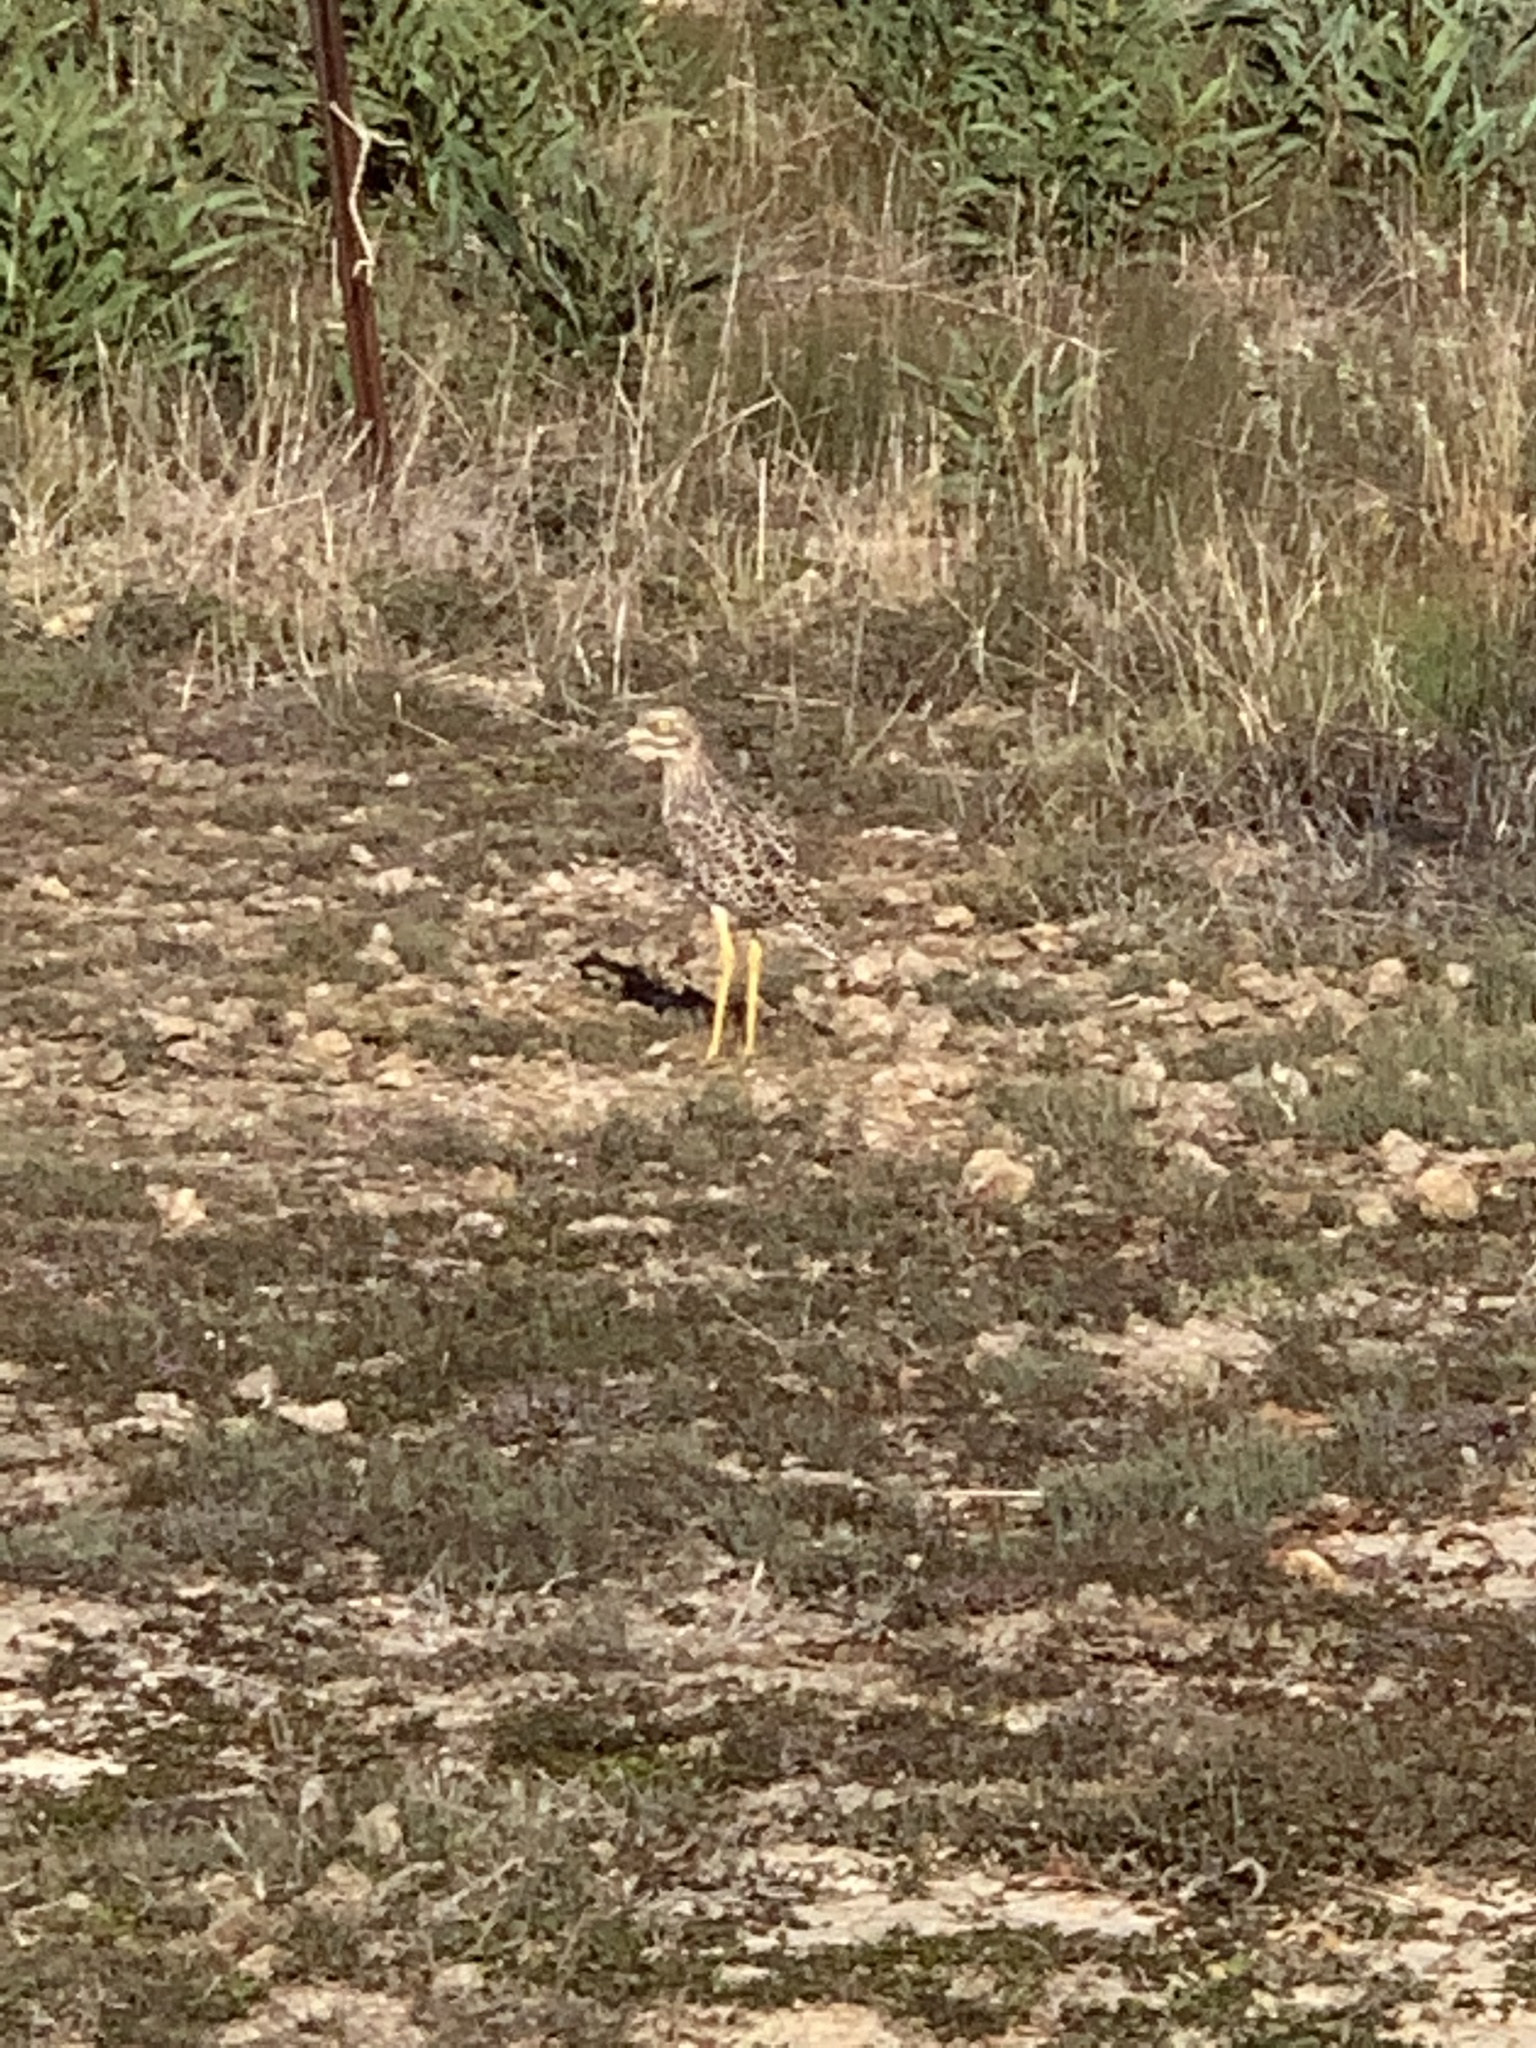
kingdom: Animalia
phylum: Chordata
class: Aves
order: Charadriiformes
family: Burhinidae
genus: Burhinus
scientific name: Burhinus capensis
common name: Spotted thick-knee
